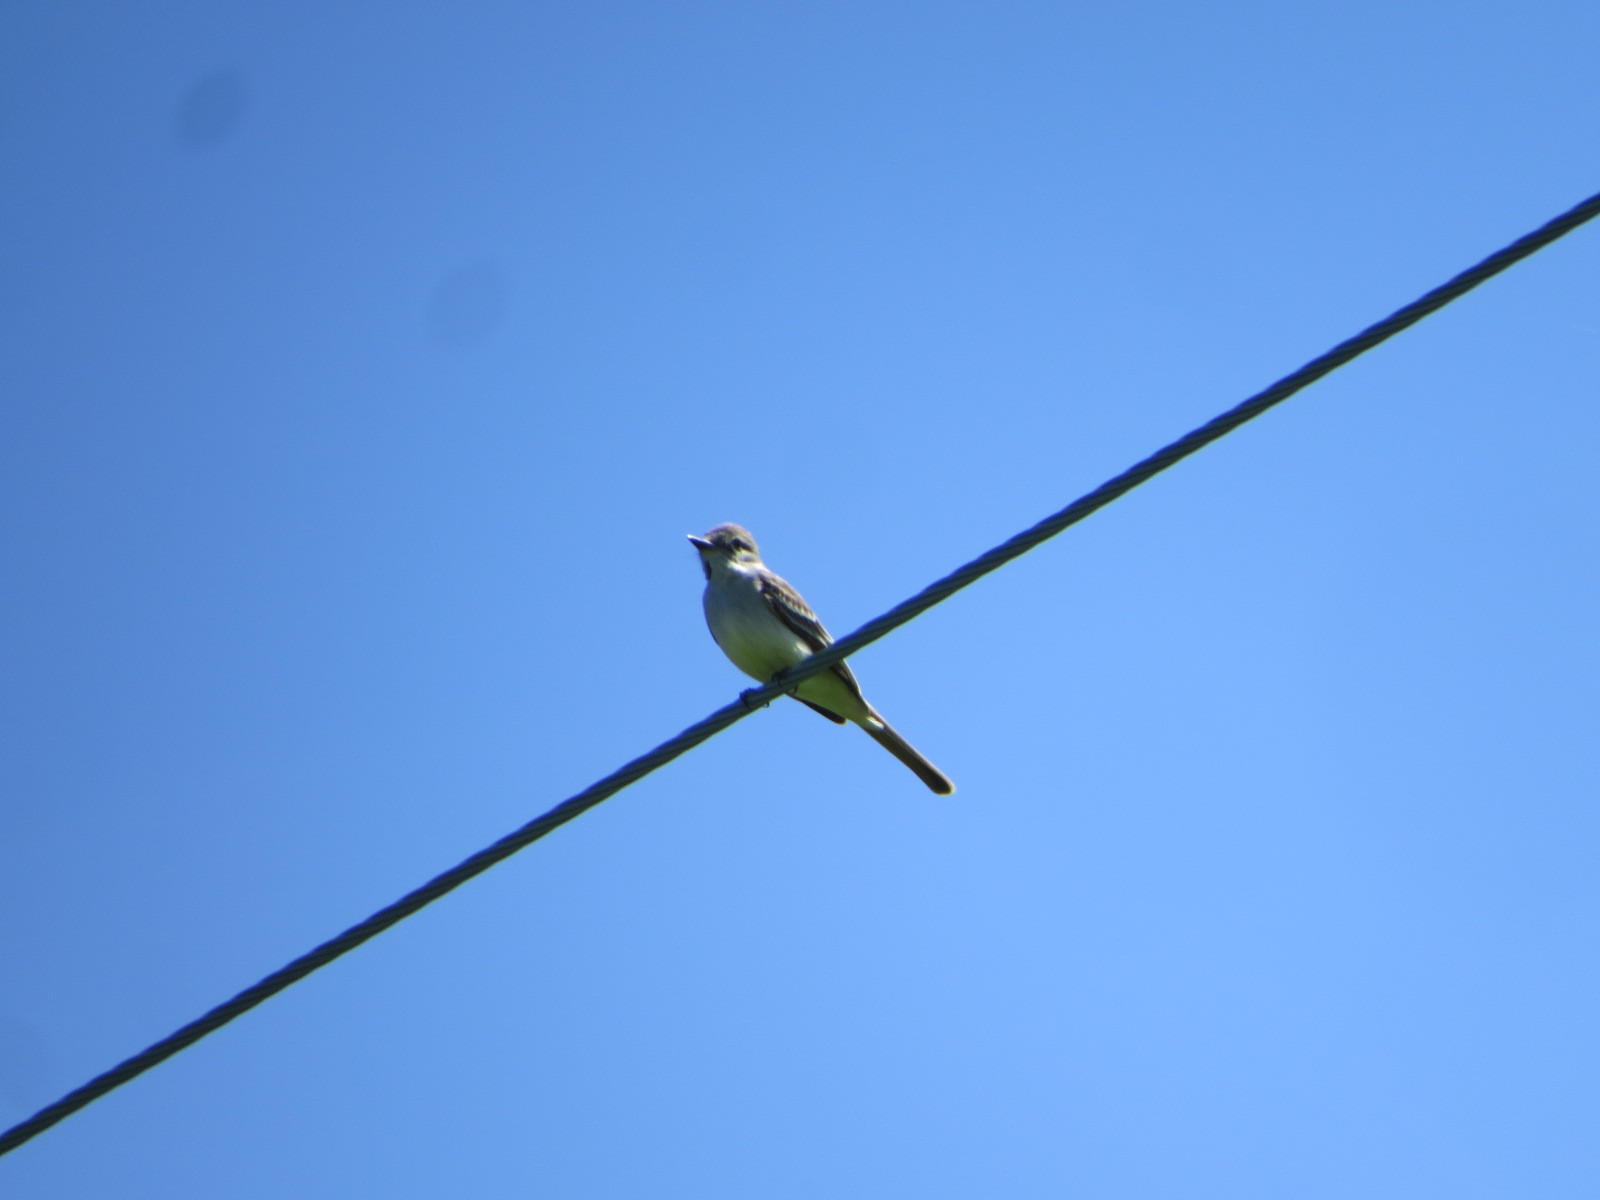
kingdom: Animalia
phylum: Chordata
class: Aves
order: Passeriformes
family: Tyrannidae
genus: Myiarchus
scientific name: Myiarchus cinerascens
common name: Ash-throated flycatcher
